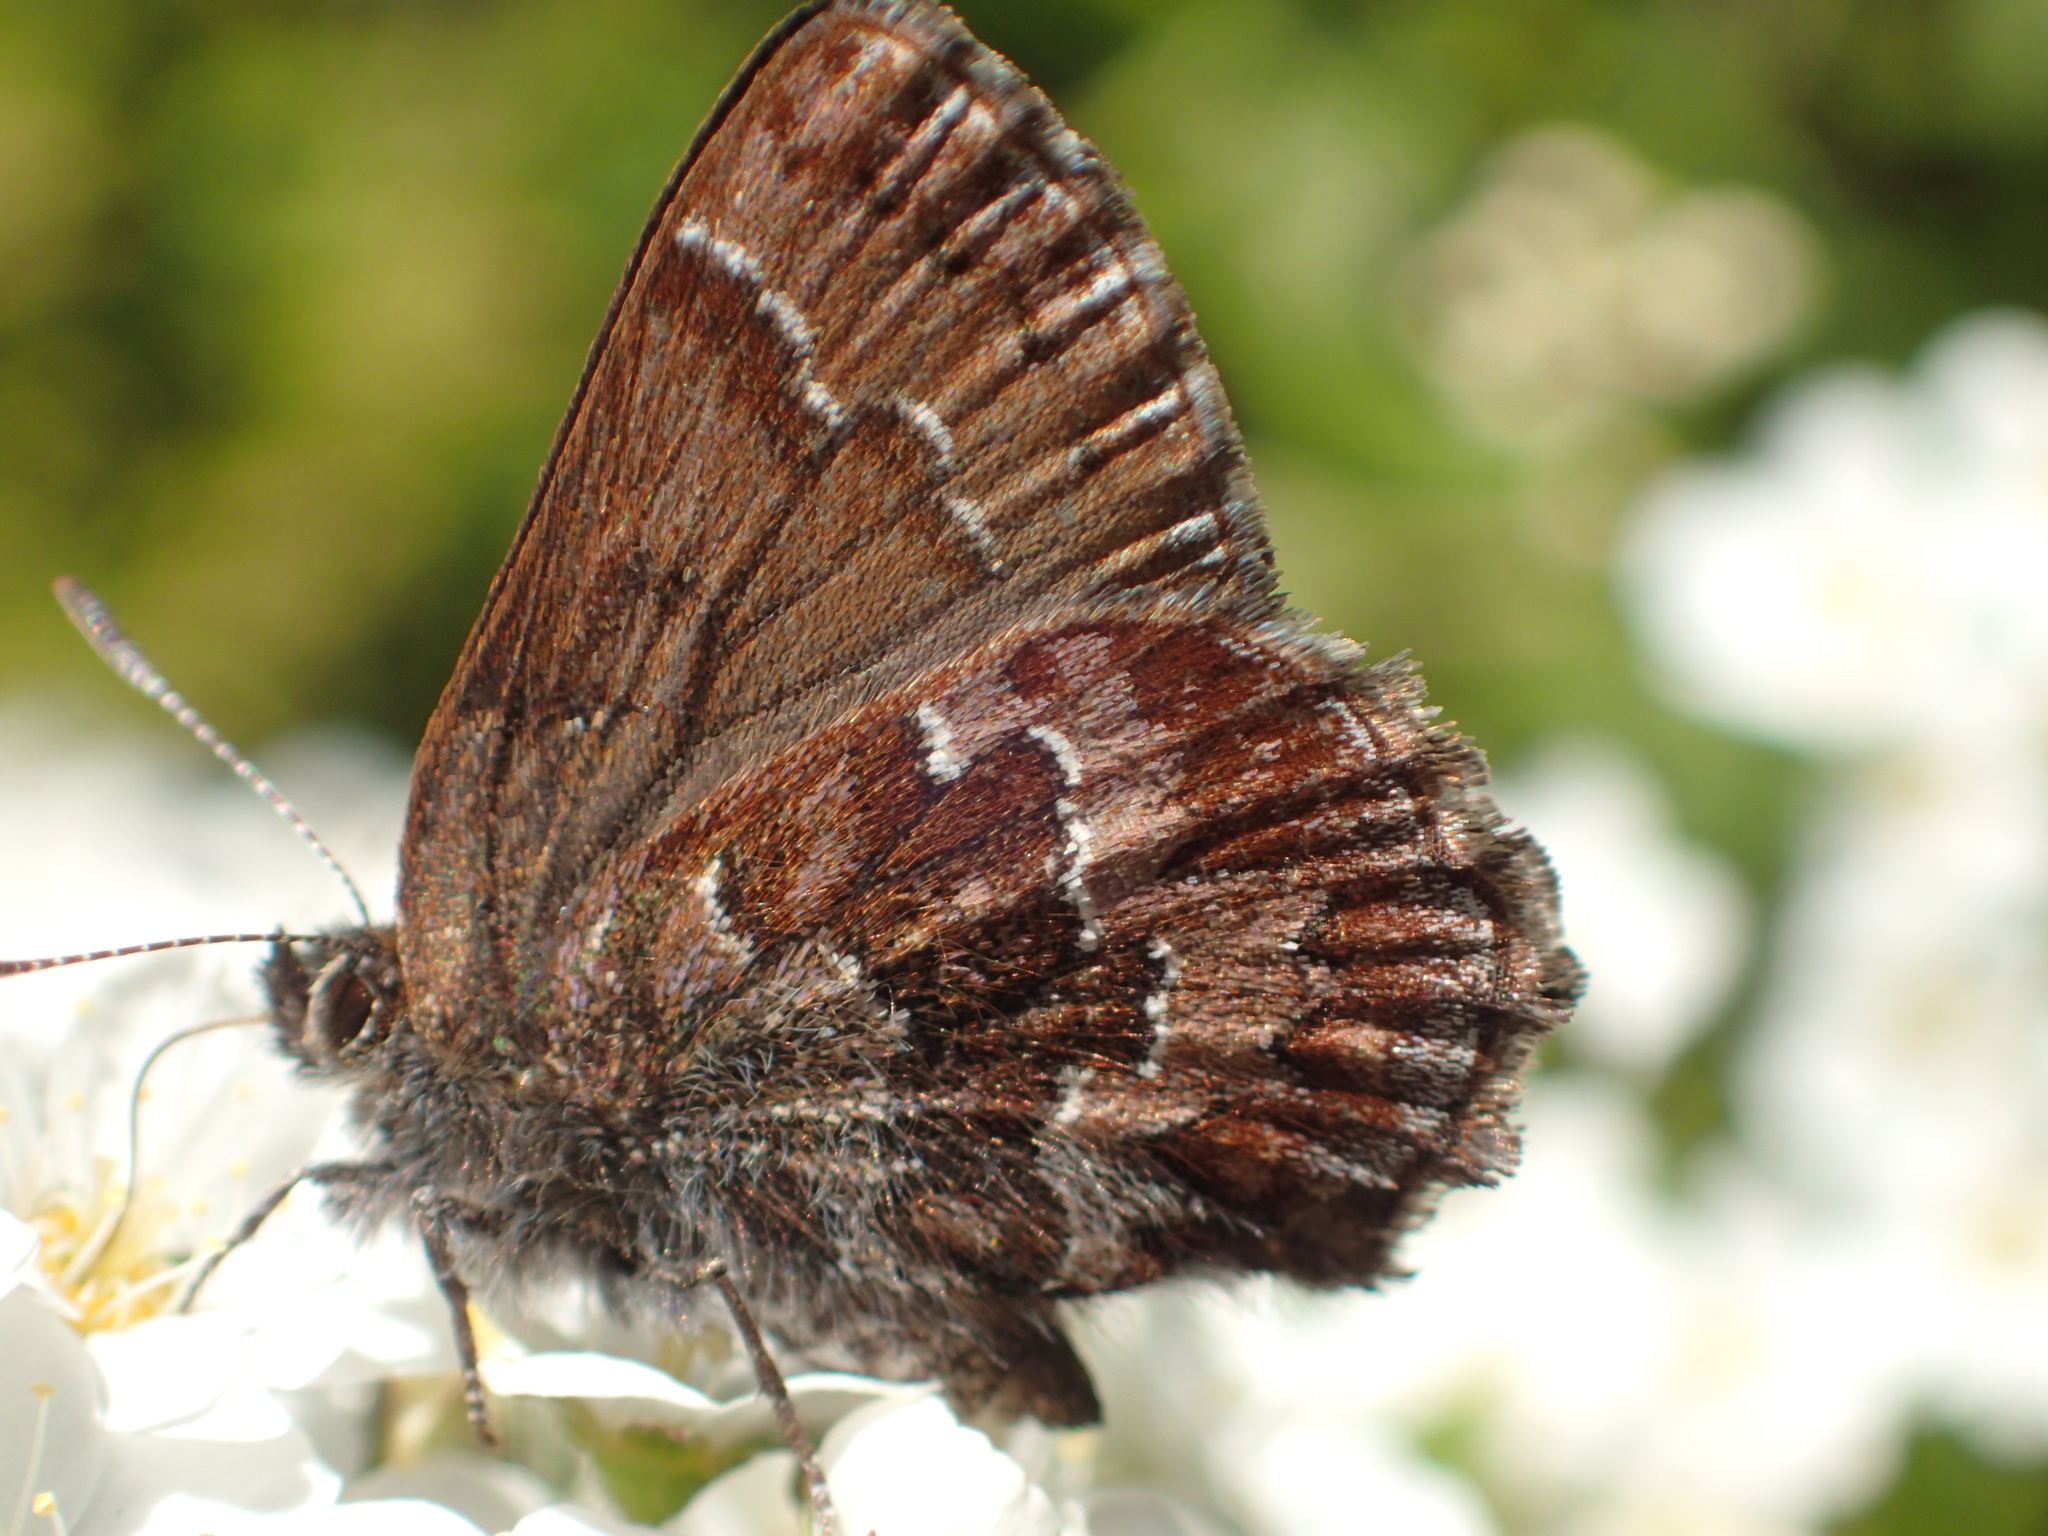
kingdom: Animalia
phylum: Arthropoda
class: Insecta
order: Lepidoptera
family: Lycaenidae
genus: Incisalia
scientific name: Incisalia niphon
